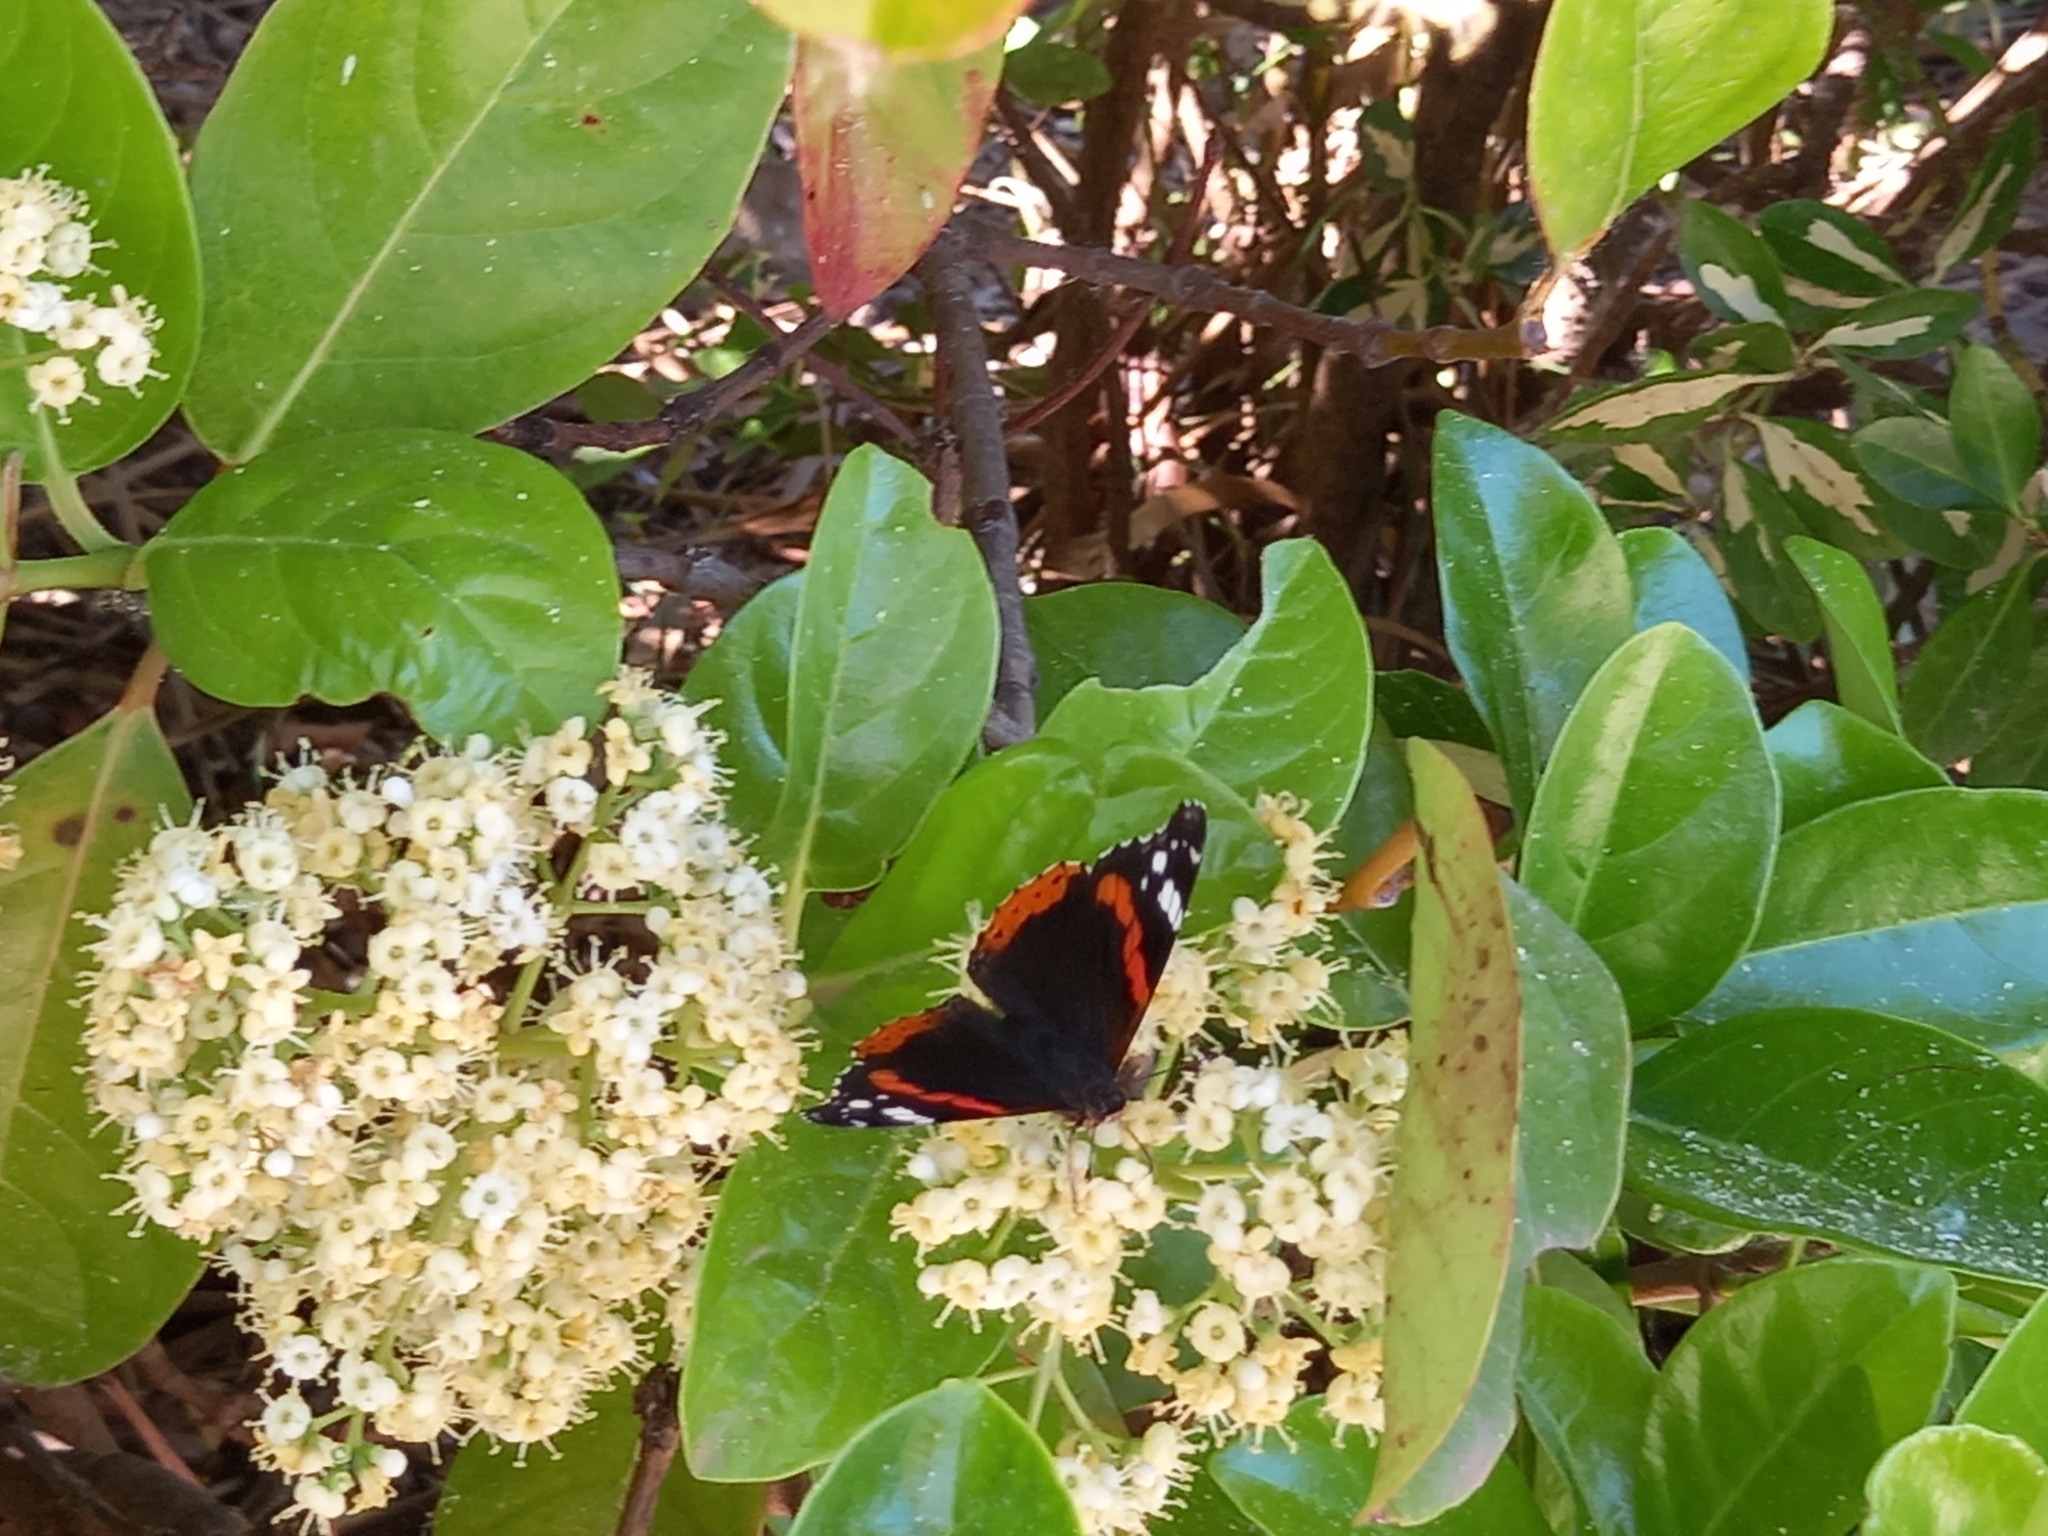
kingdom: Animalia
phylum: Arthropoda
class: Insecta
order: Lepidoptera
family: Nymphalidae
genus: Vanessa
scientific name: Vanessa atalanta
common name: Red admiral
